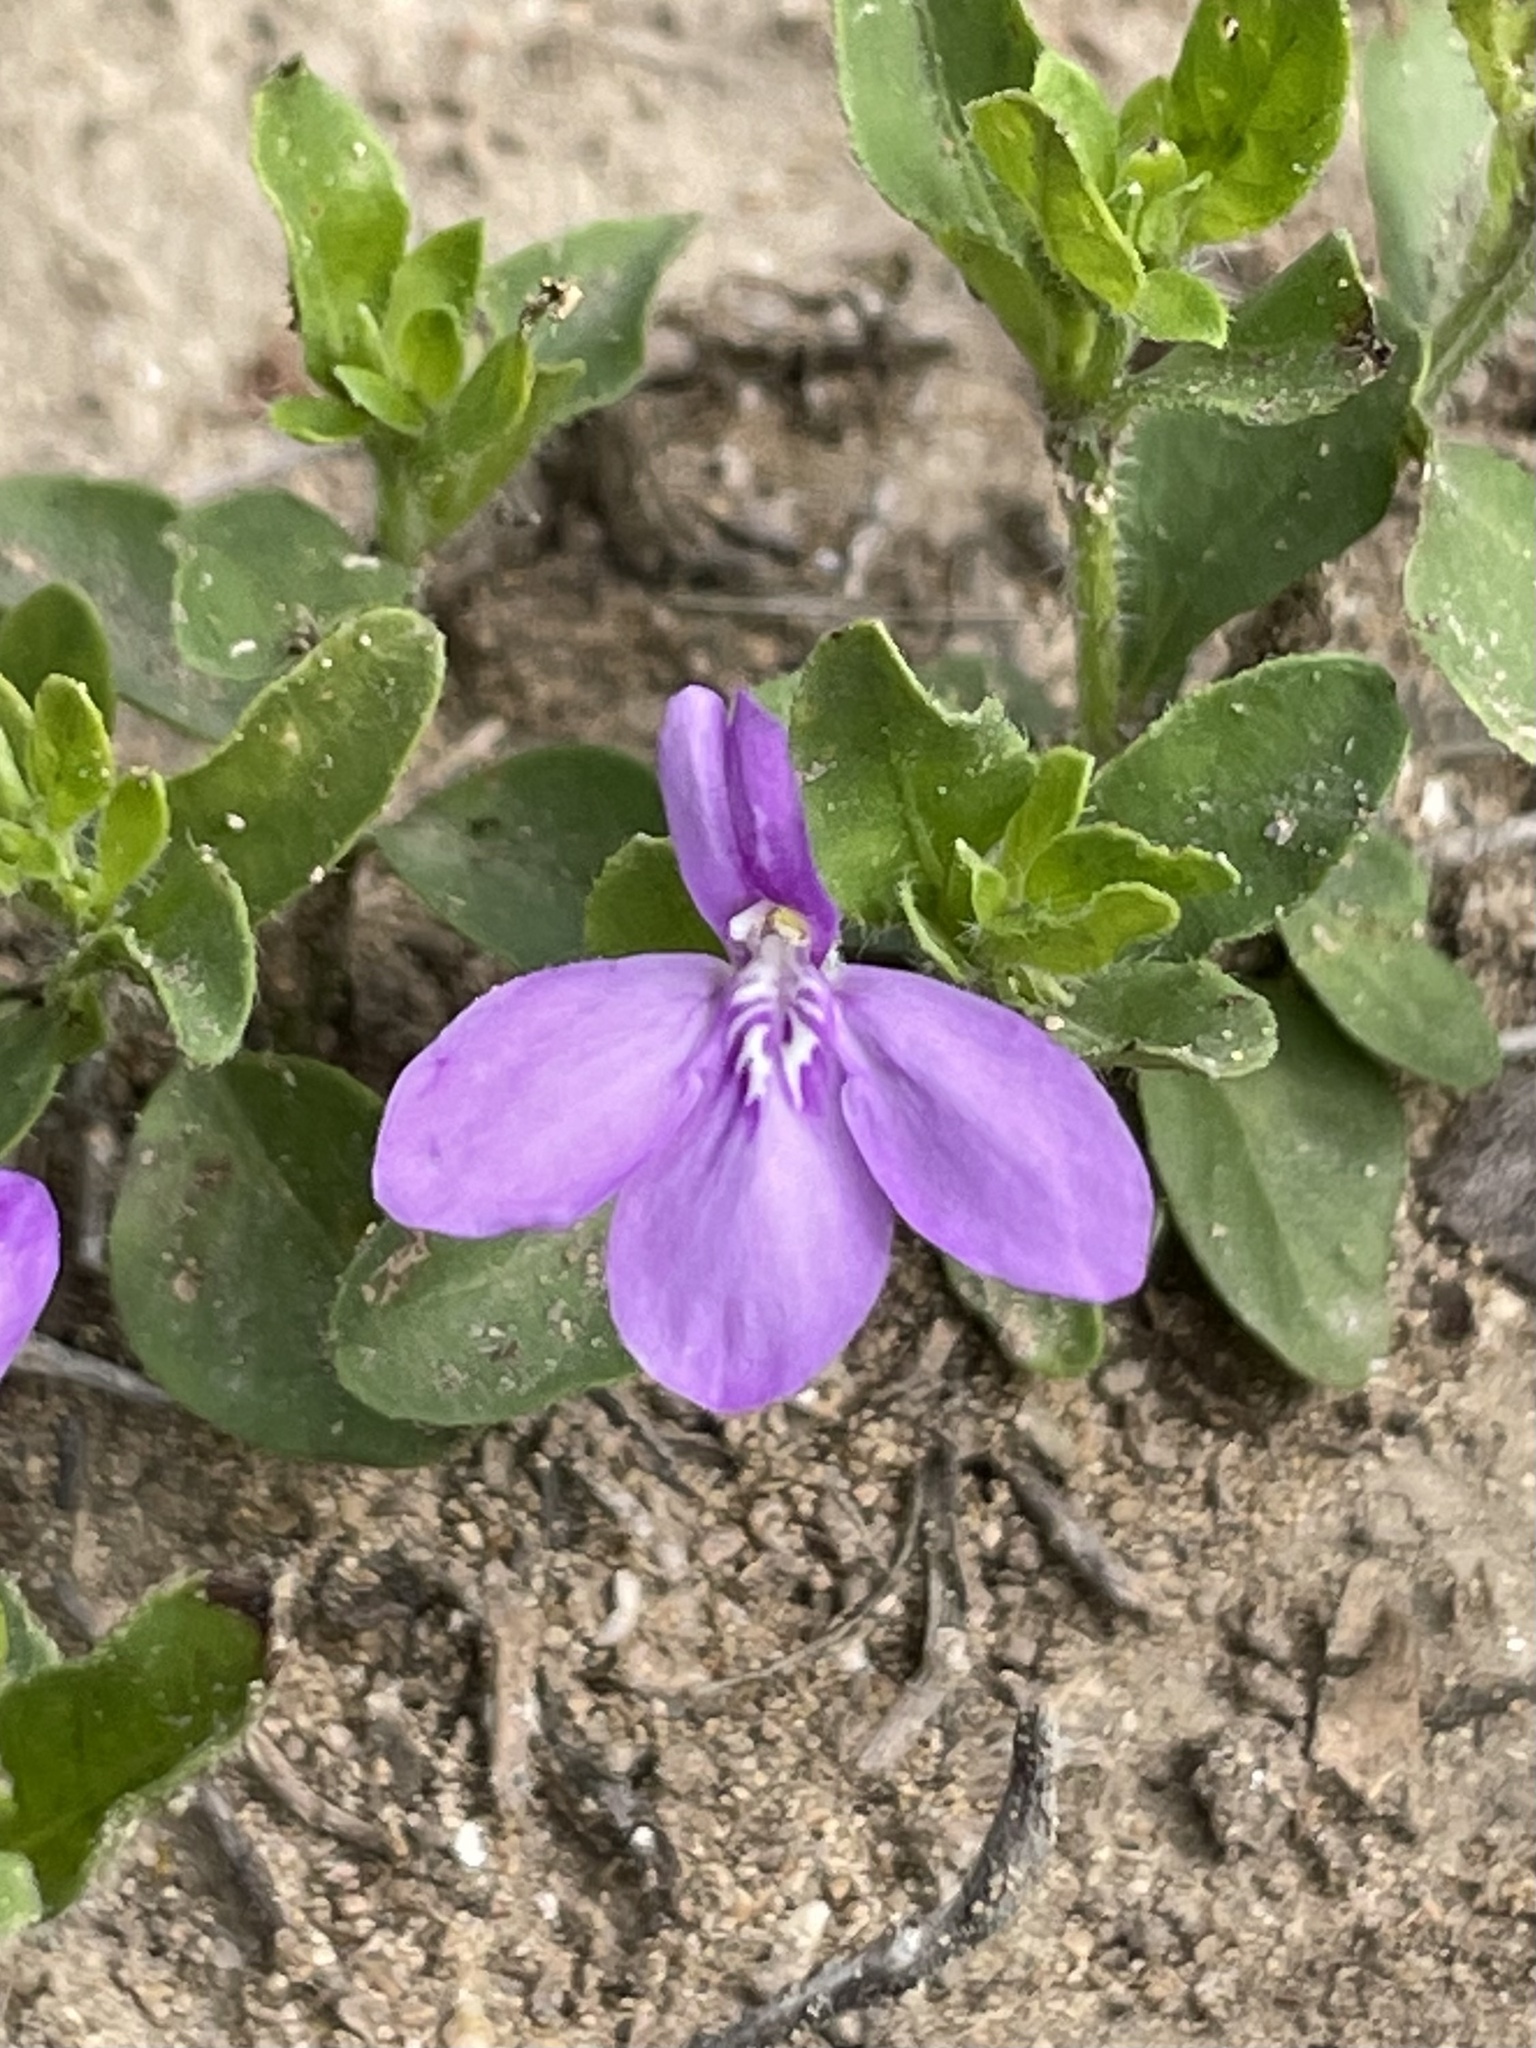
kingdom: Plantae
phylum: Tracheophyta
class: Magnoliopsida
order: Lamiales
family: Acanthaceae
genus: Justicia
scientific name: Justicia pilosella
